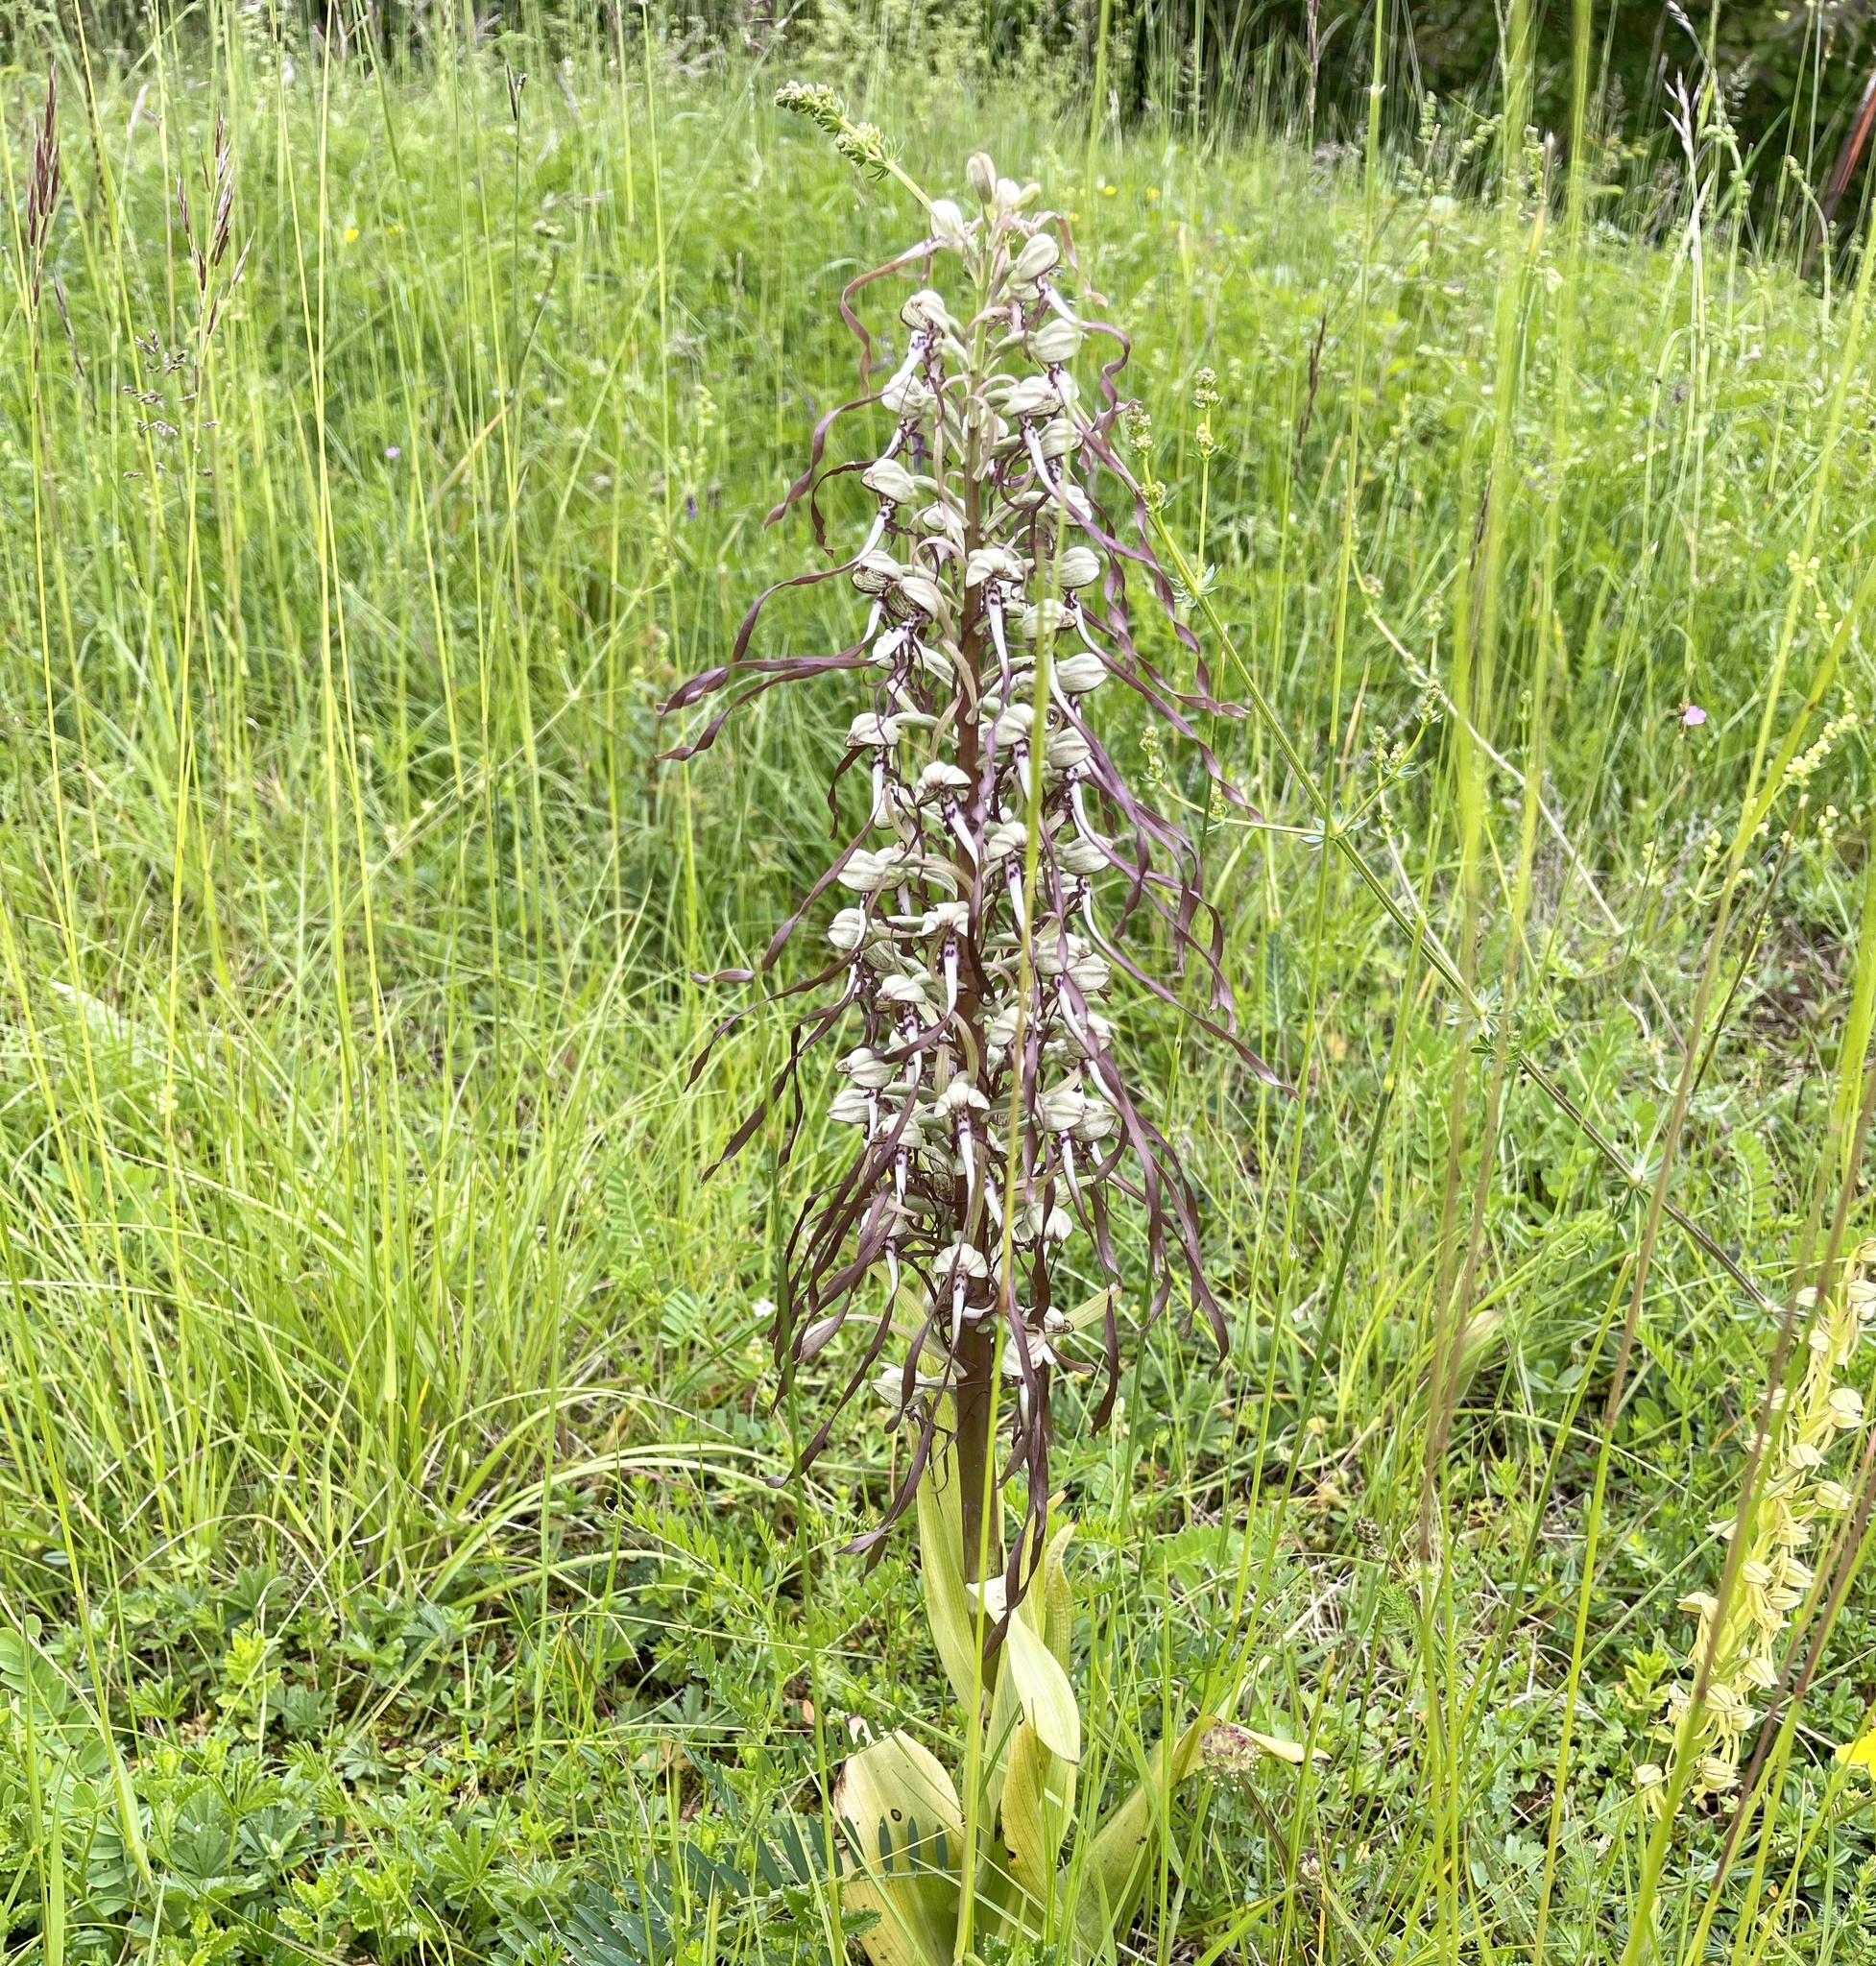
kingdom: Plantae
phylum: Tracheophyta
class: Liliopsida
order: Asparagales
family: Orchidaceae
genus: Himantoglossum
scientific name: Himantoglossum hircinum
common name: Lizard orchid
